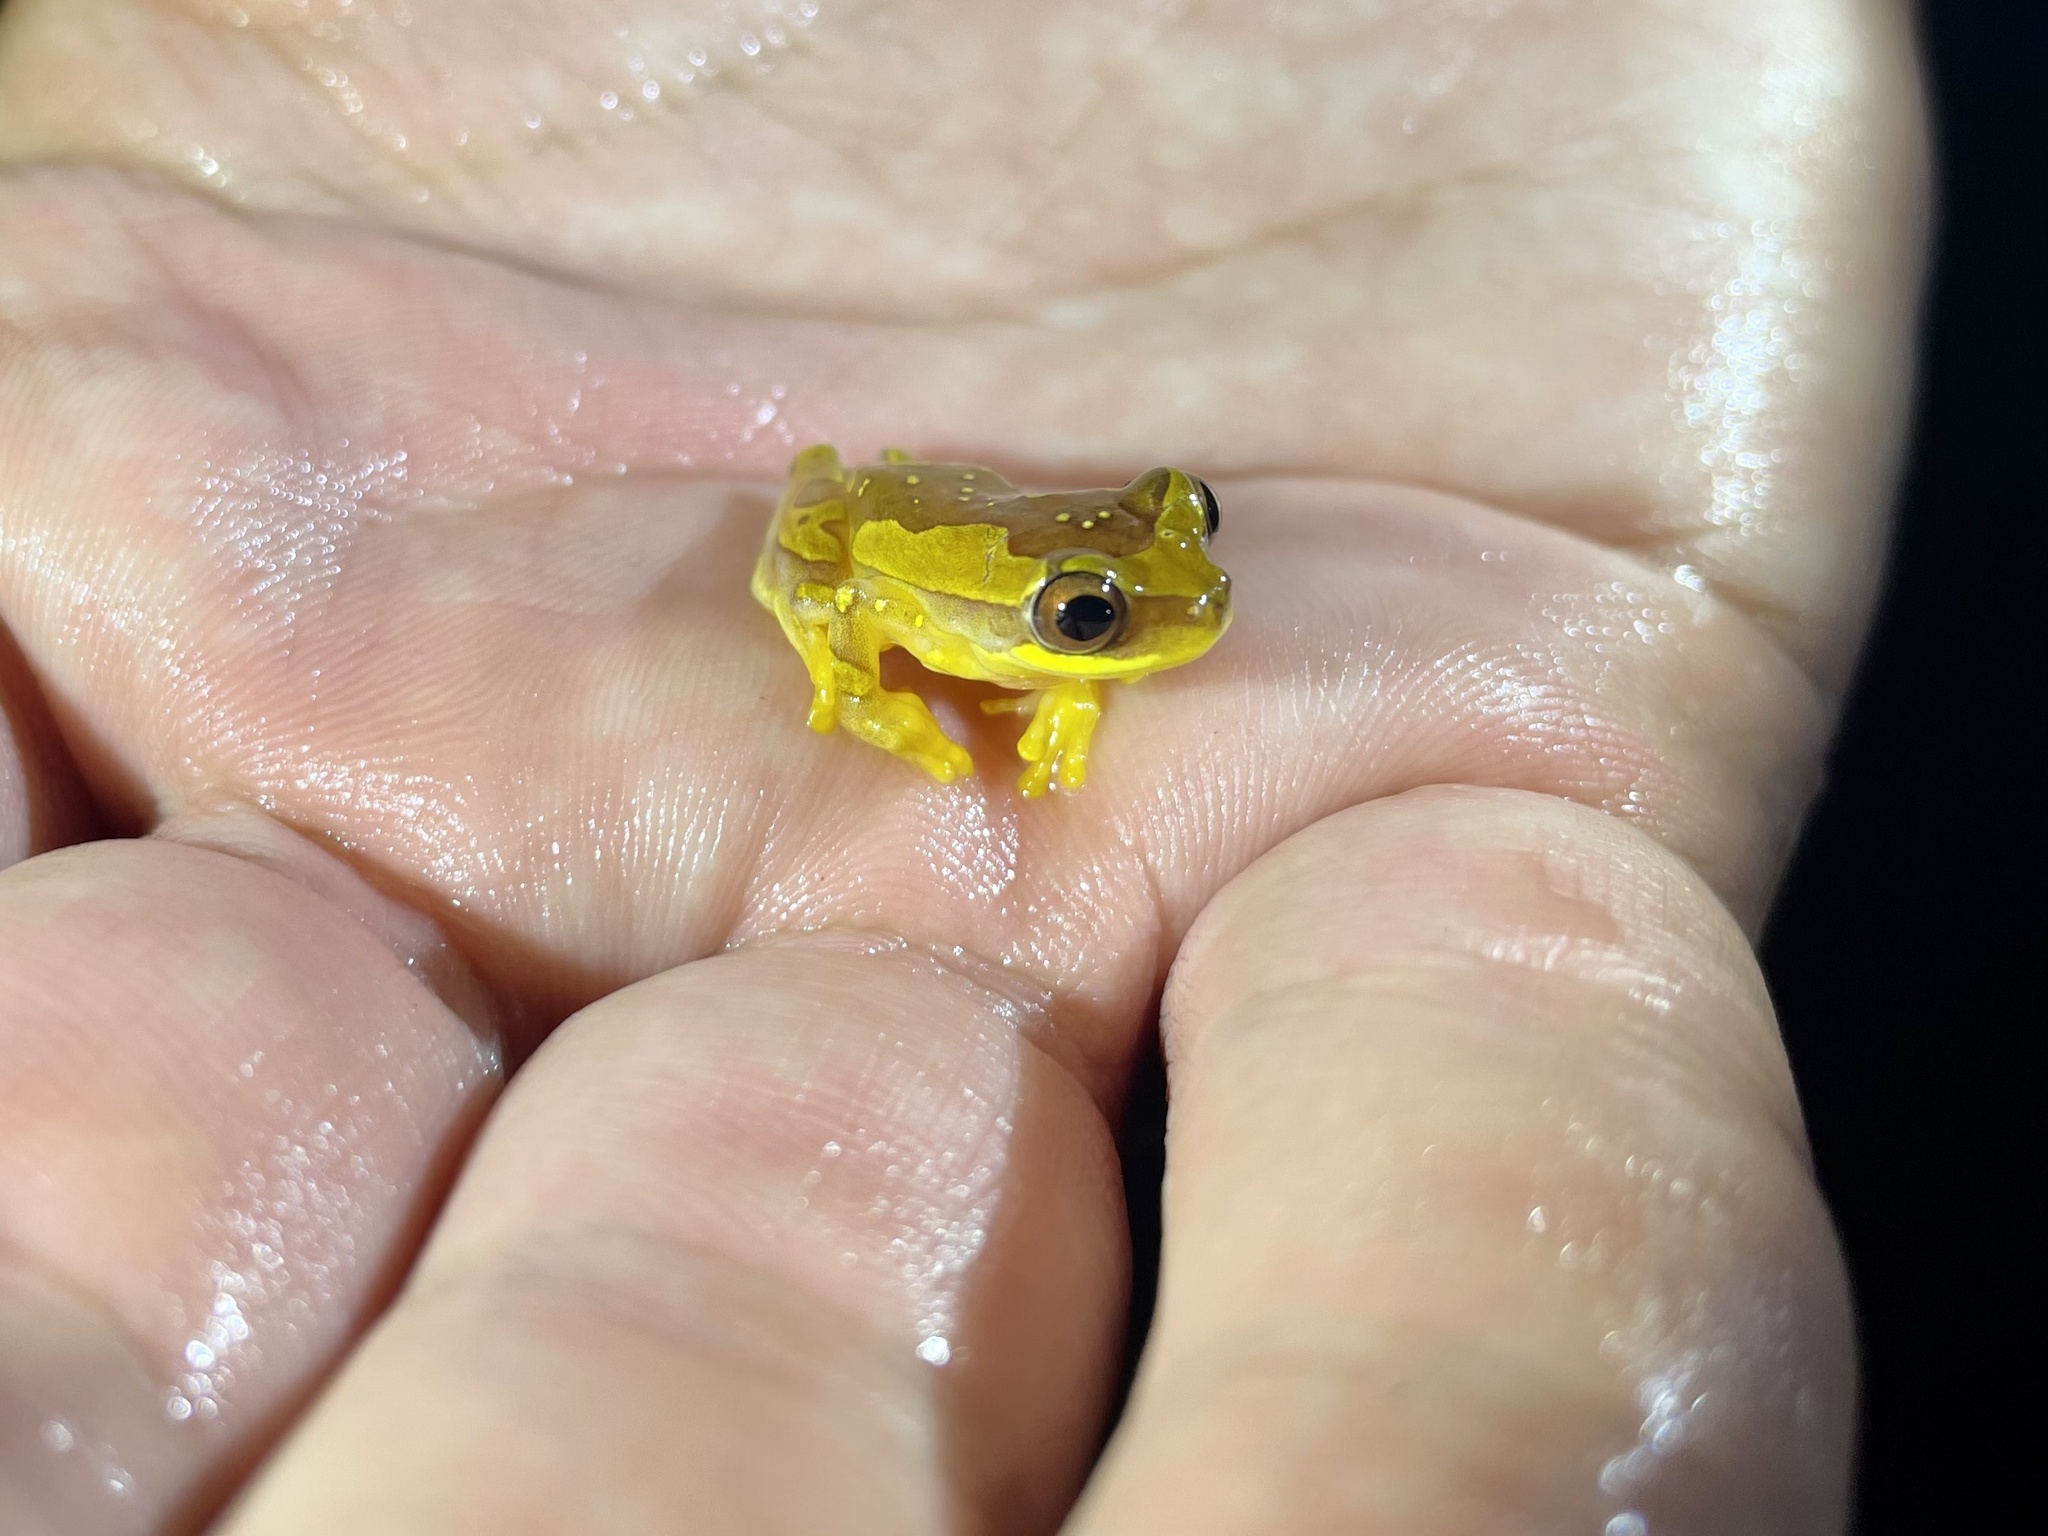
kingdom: Animalia
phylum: Chordata
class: Amphibia
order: Anura
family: Hylidae
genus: Dendropsophus
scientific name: Dendropsophus ebraccatus
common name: Hourglass treefrog
